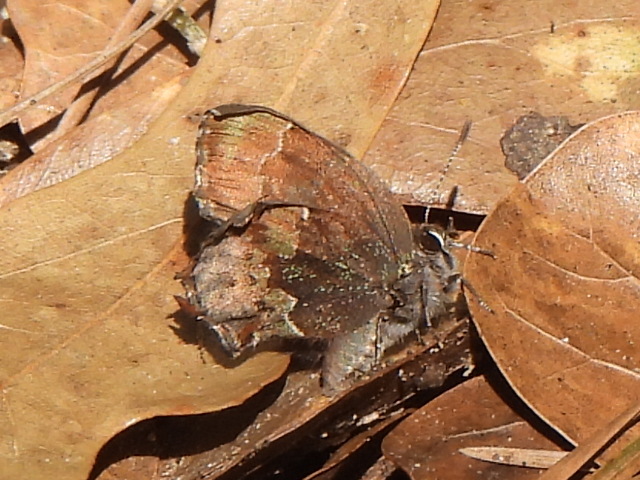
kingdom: Animalia
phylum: Arthropoda
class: Insecta
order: Lepidoptera
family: Lycaenidae
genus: Incisalia
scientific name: Incisalia henrici
